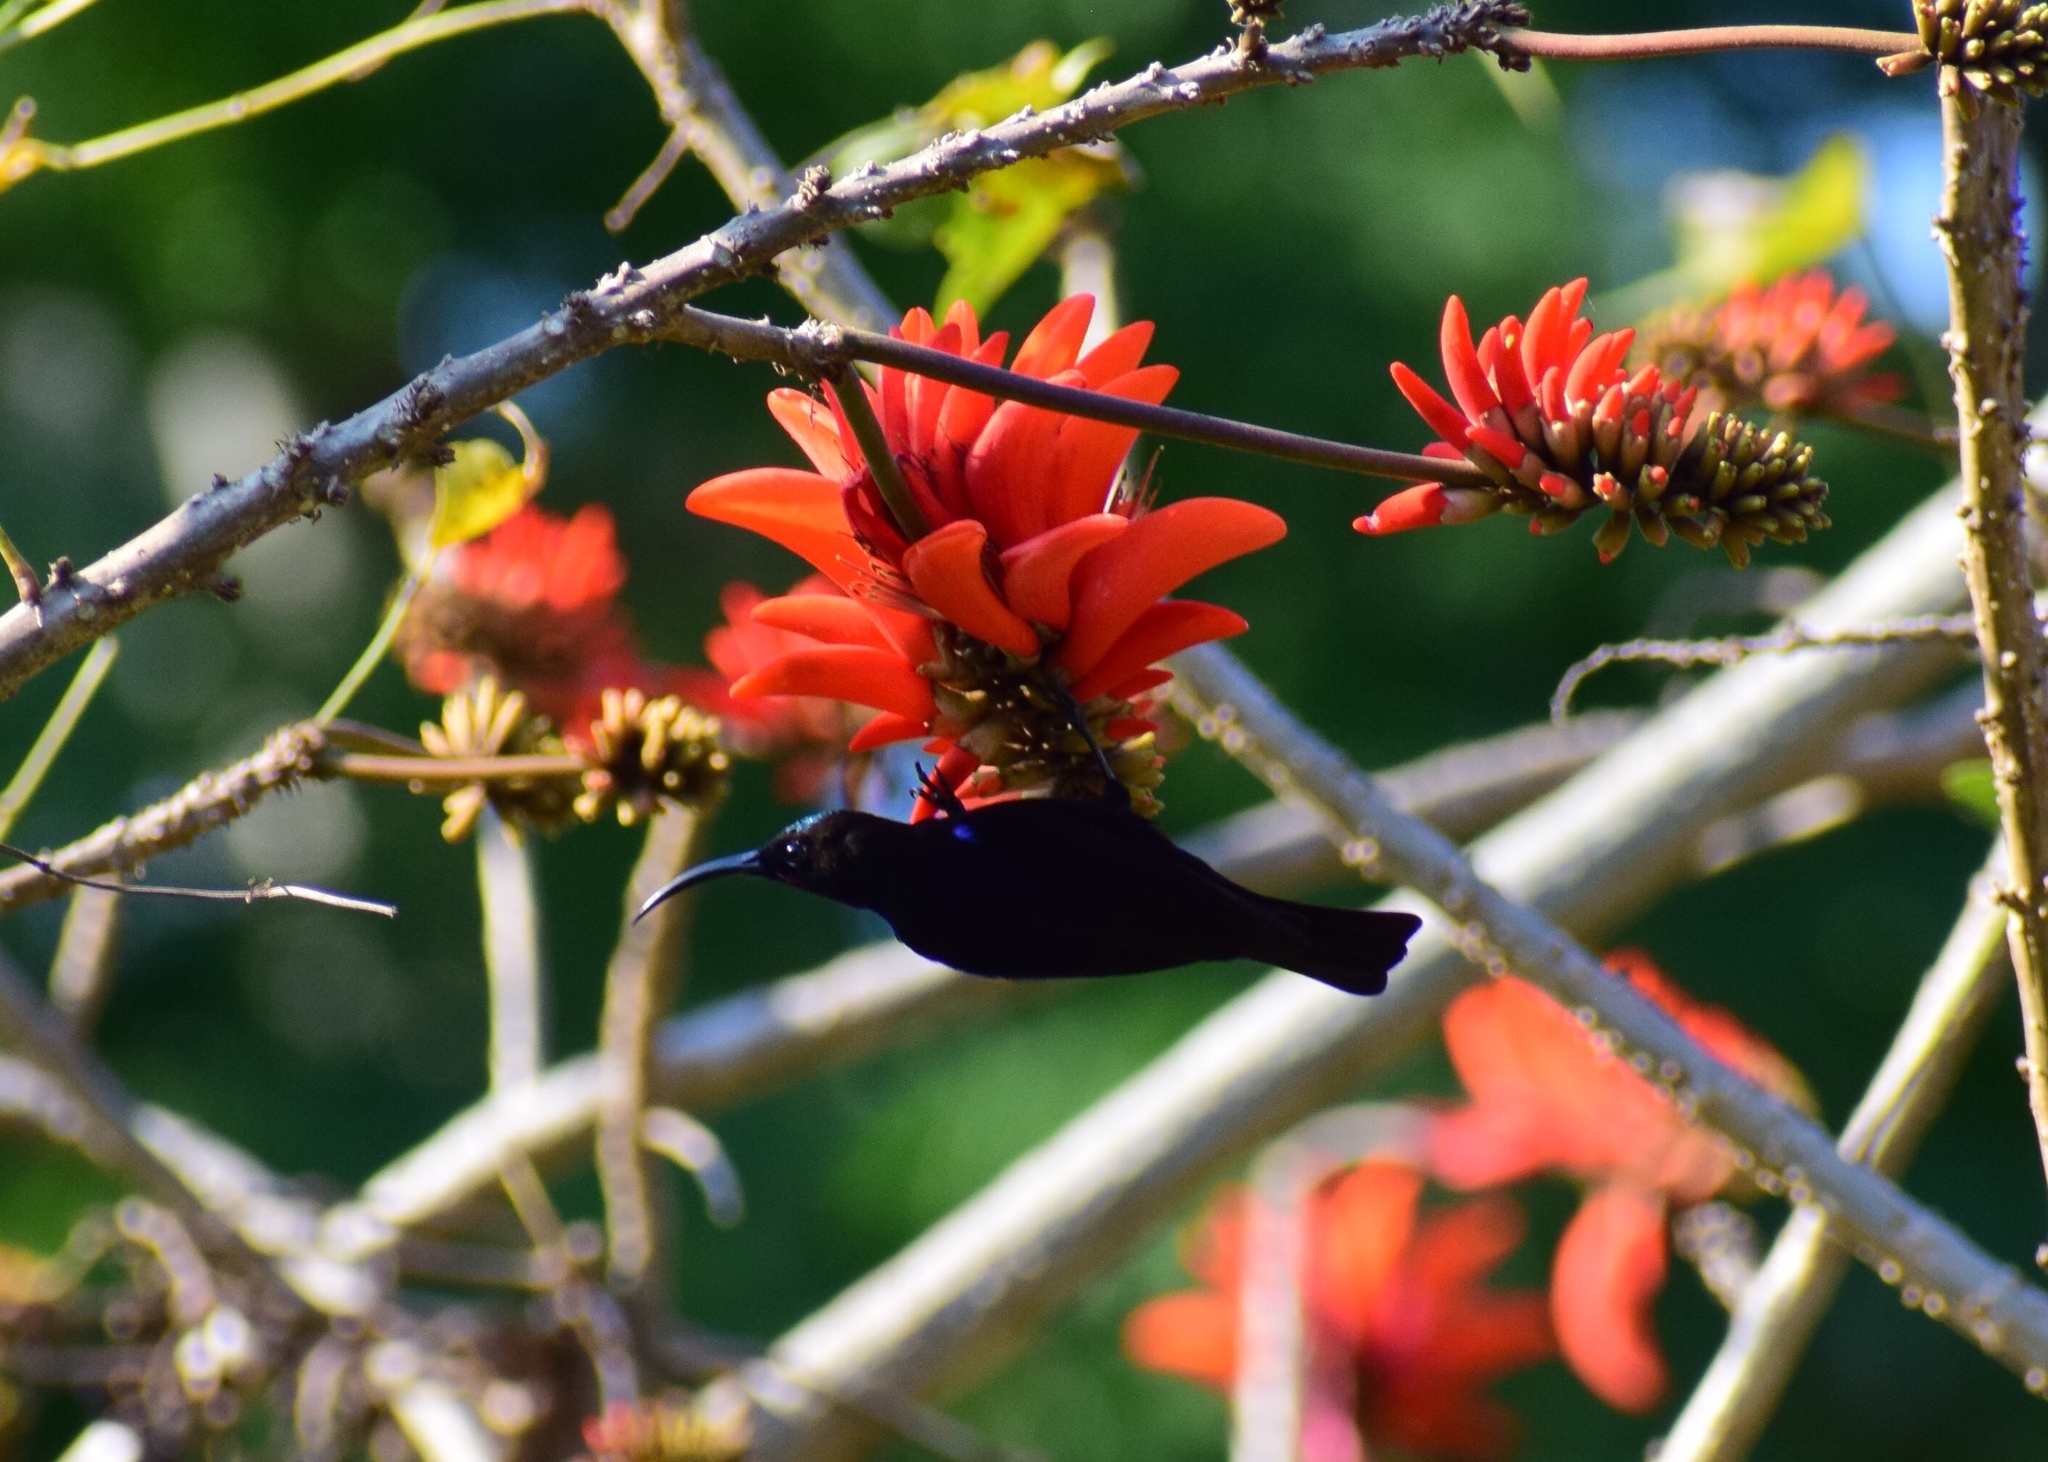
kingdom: Animalia
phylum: Chordata
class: Aves
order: Passeriformes
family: Nectariniidae
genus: Chalcomitra
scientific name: Chalcomitra amethystina
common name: Amethyst sunbird
